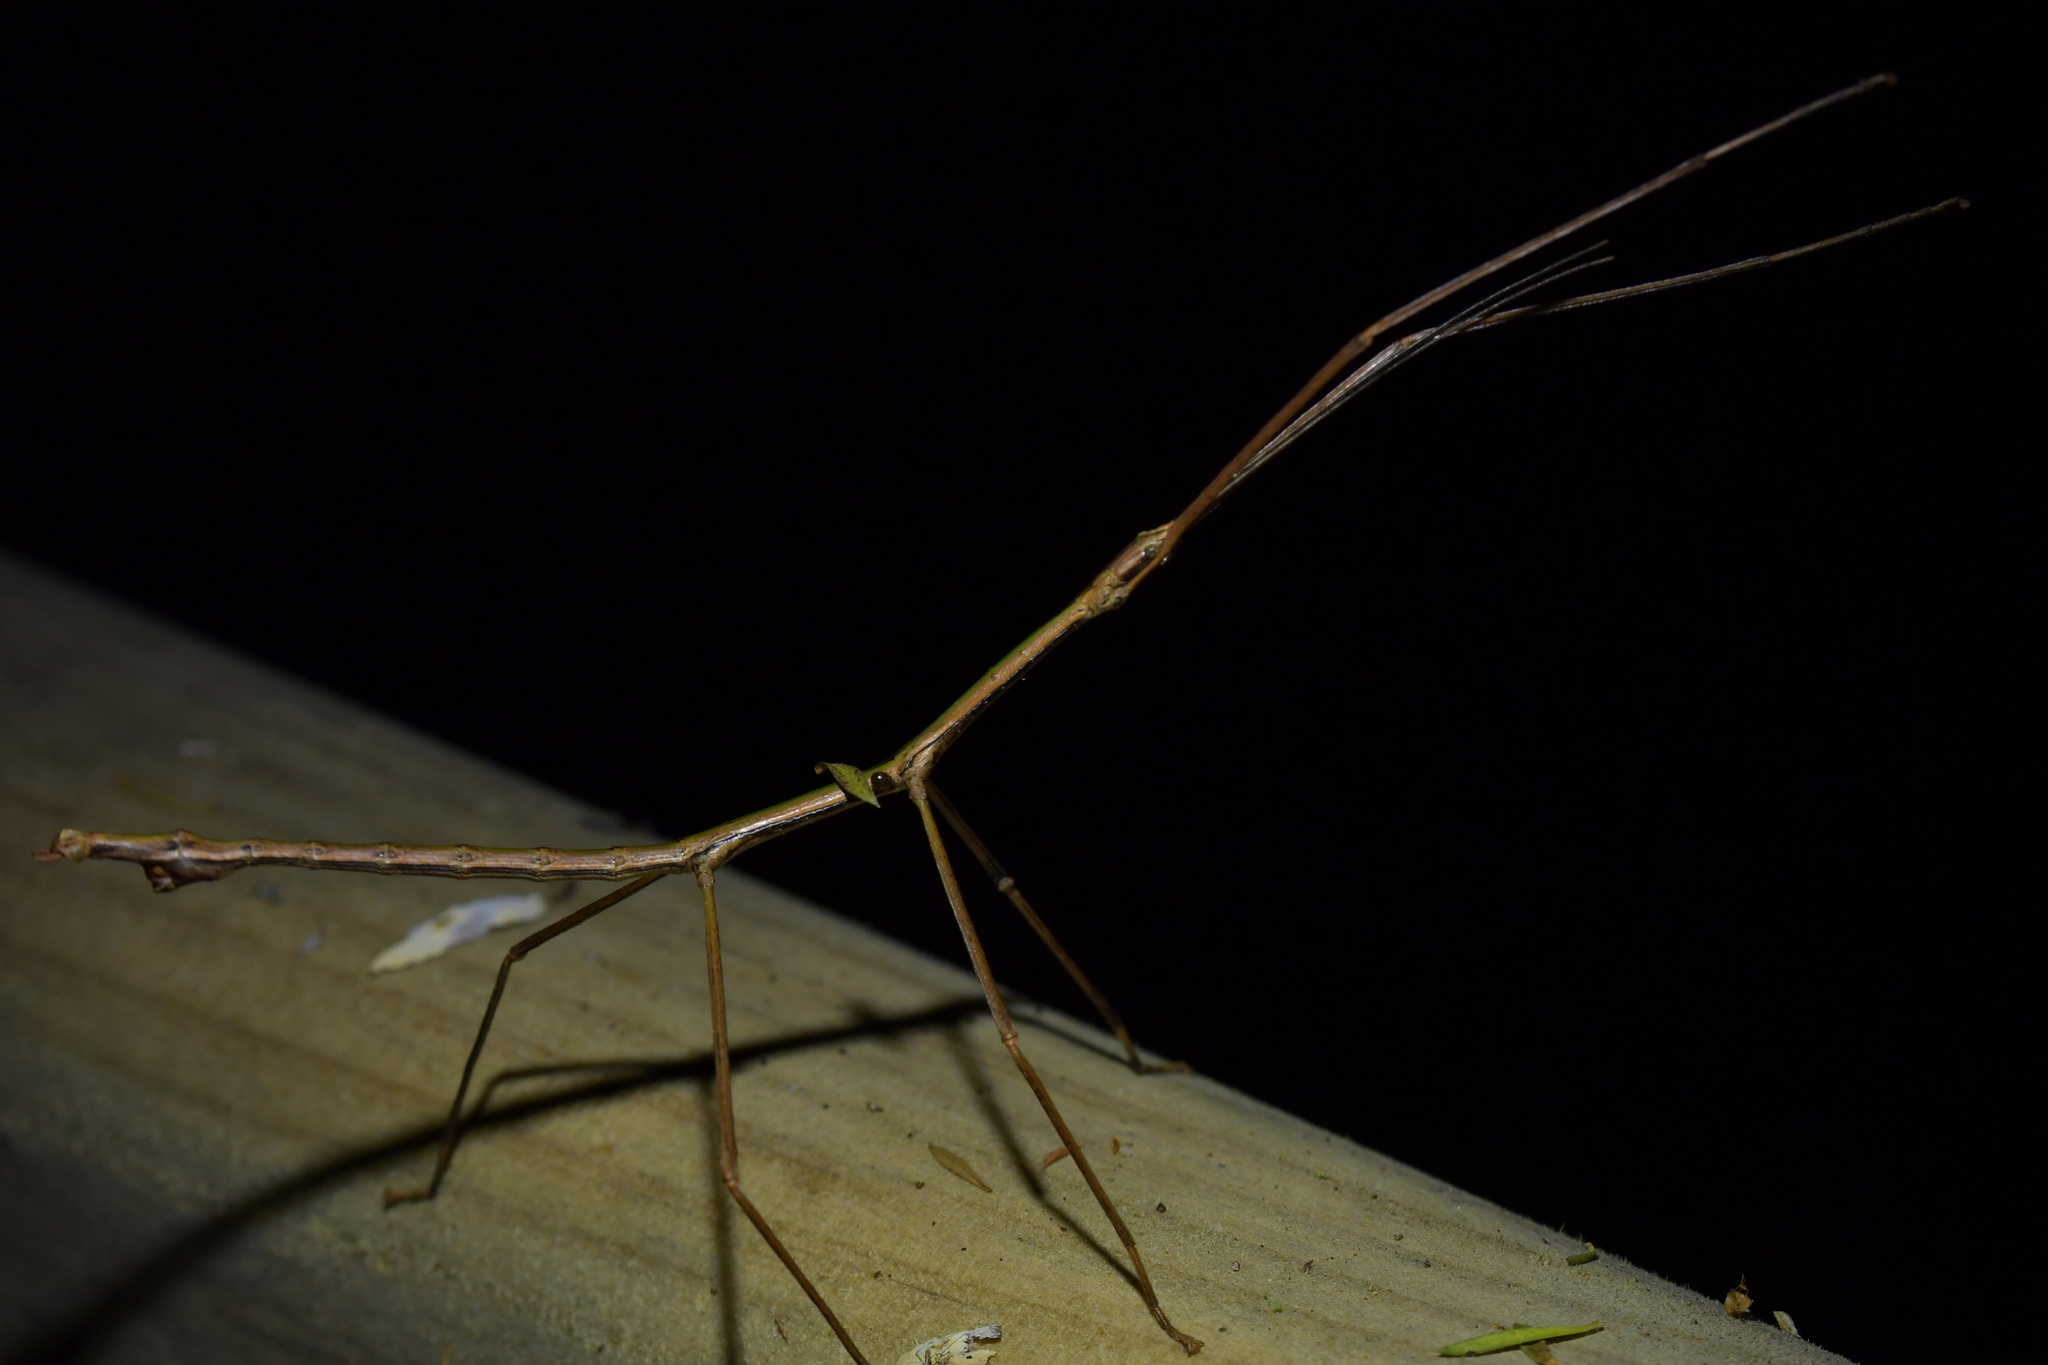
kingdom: Animalia
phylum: Arthropoda
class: Insecta
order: Phasmida
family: Phasmatidae
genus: Clitarchus
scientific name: Clitarchus hookeri
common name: Smooth stick insect
